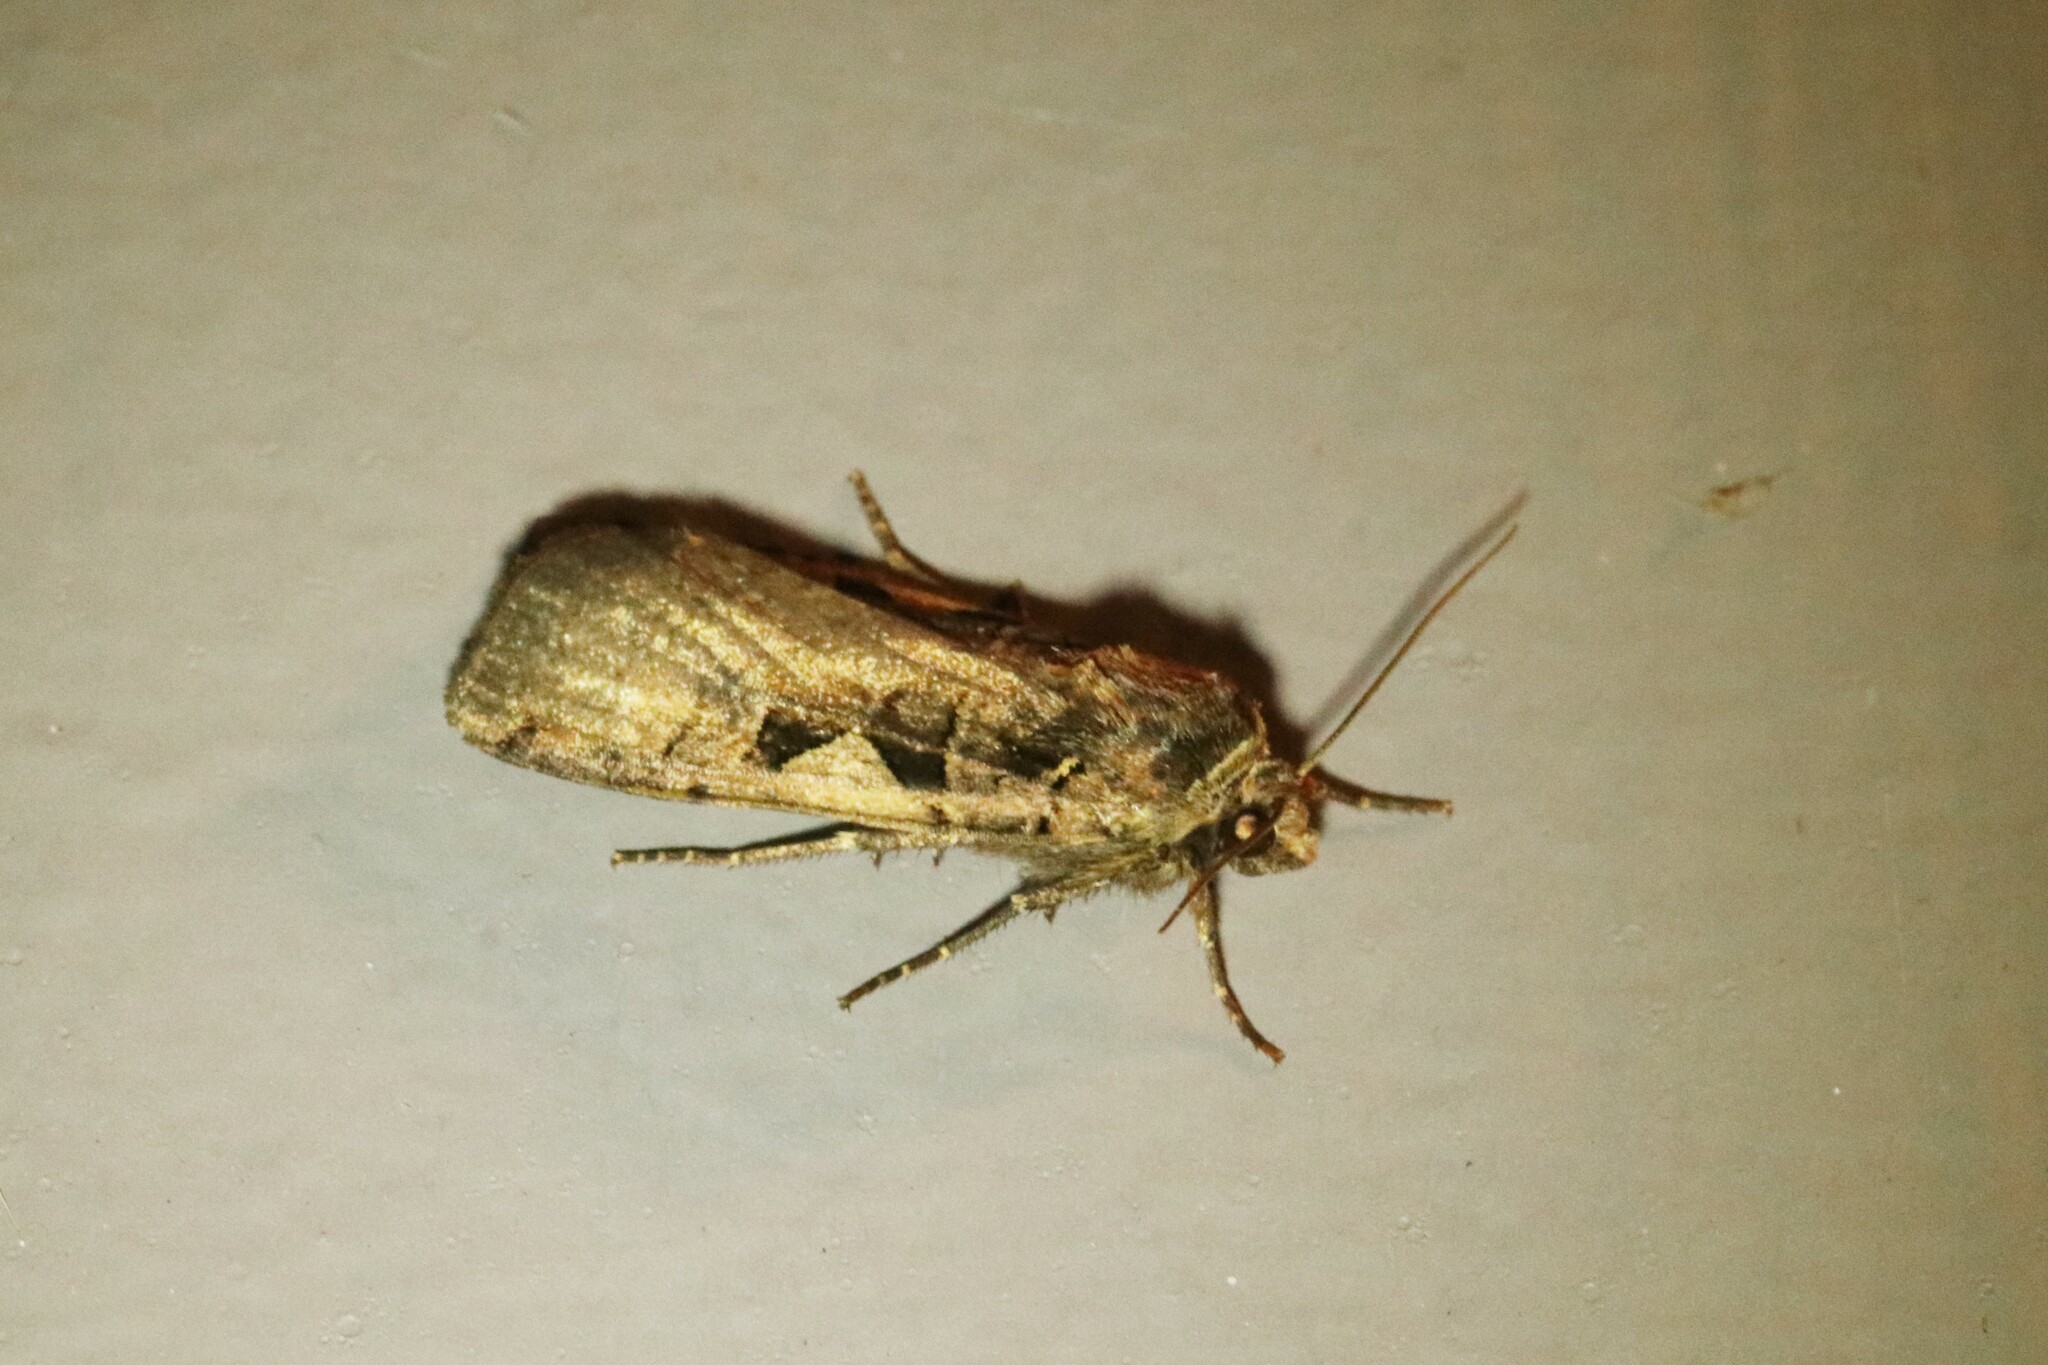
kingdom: Animalia
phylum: Arthropoda
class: Insecta
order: Lepidoptera
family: Noctuidae
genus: Xestia
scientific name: Xestia
